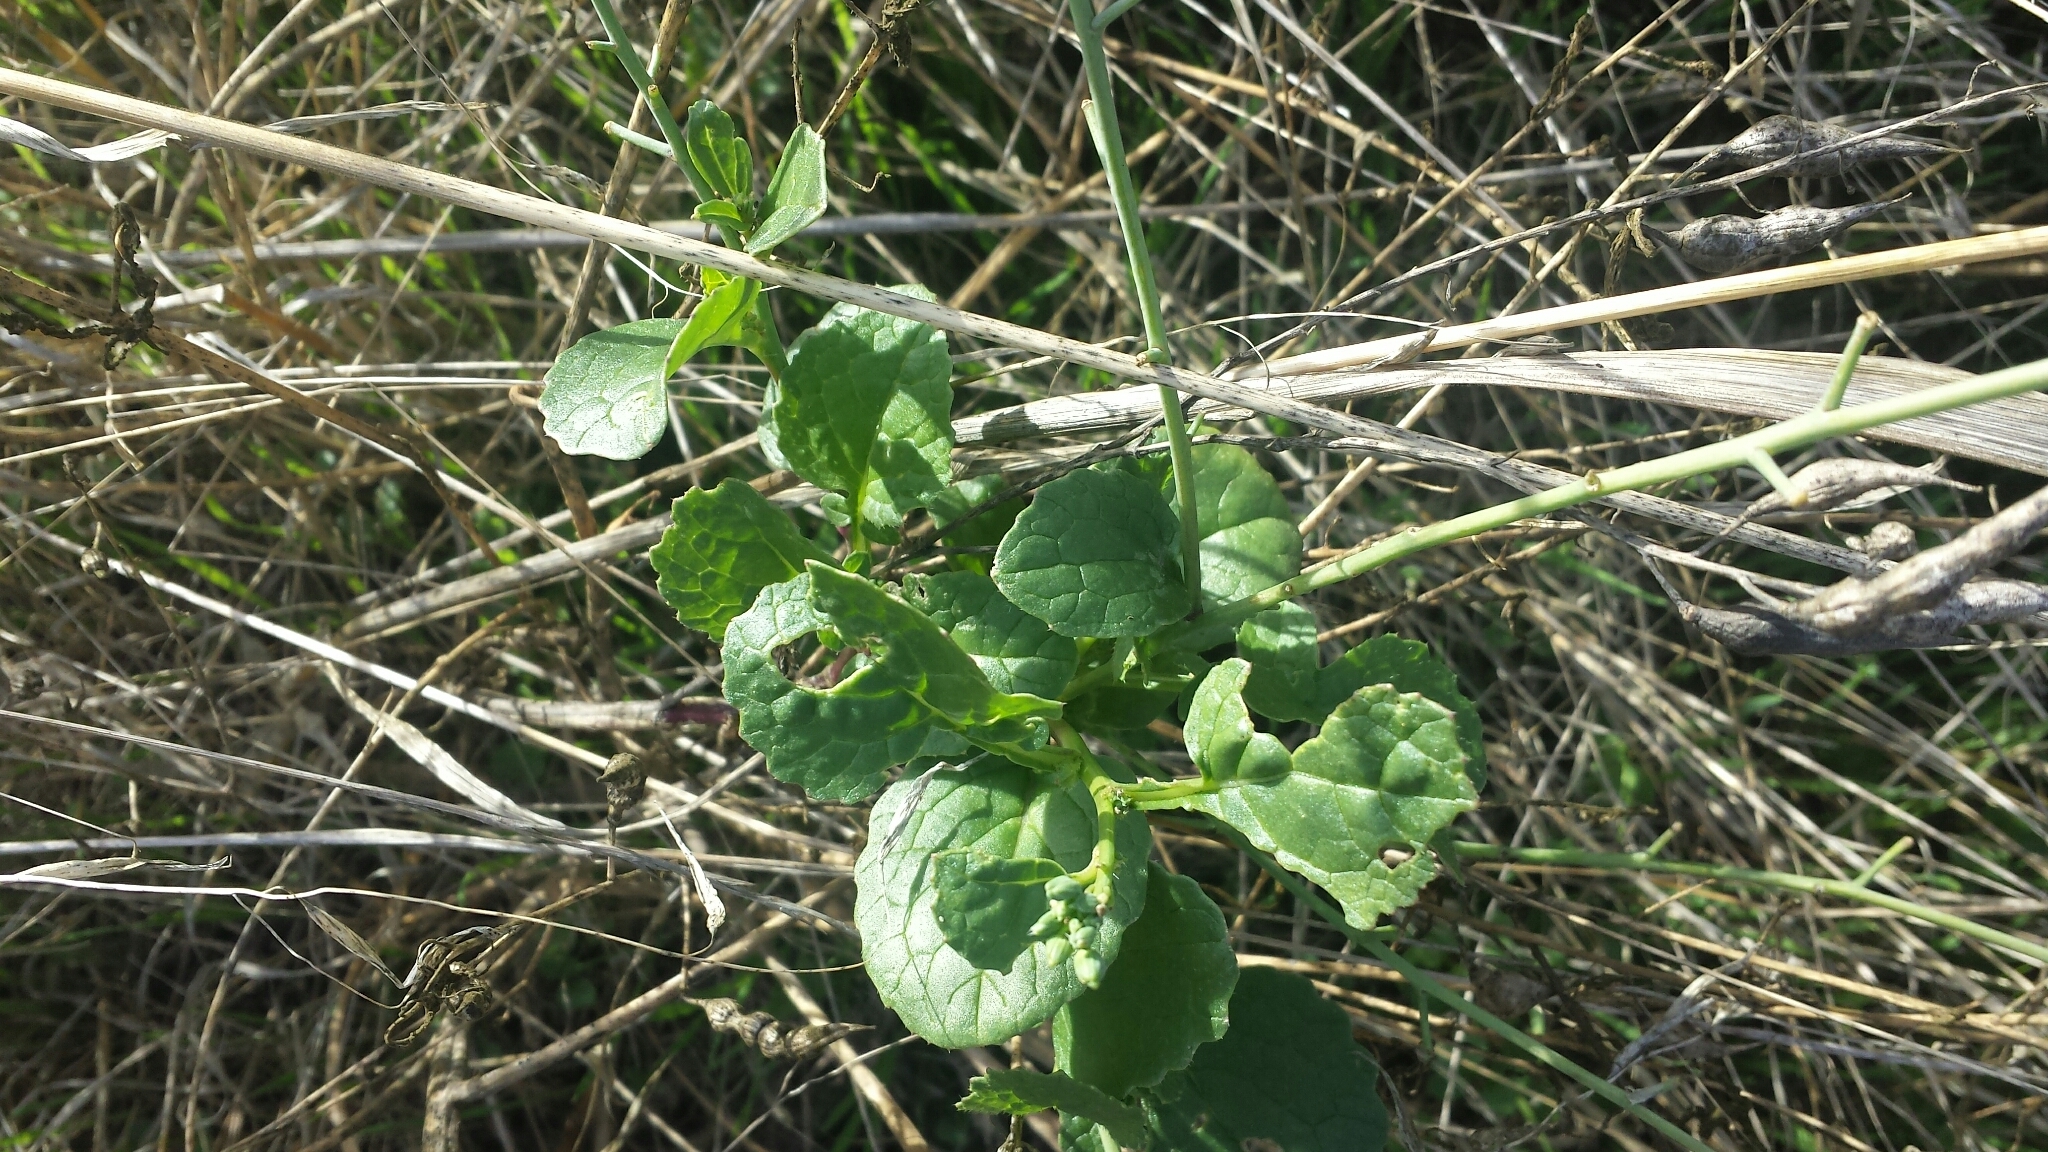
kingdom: Plantae
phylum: Tracheophyta
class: Magnoliopsida
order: Brassicales
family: Brassicaceae
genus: Raphanus
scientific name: Raphanus sativus
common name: Cultivated radish
